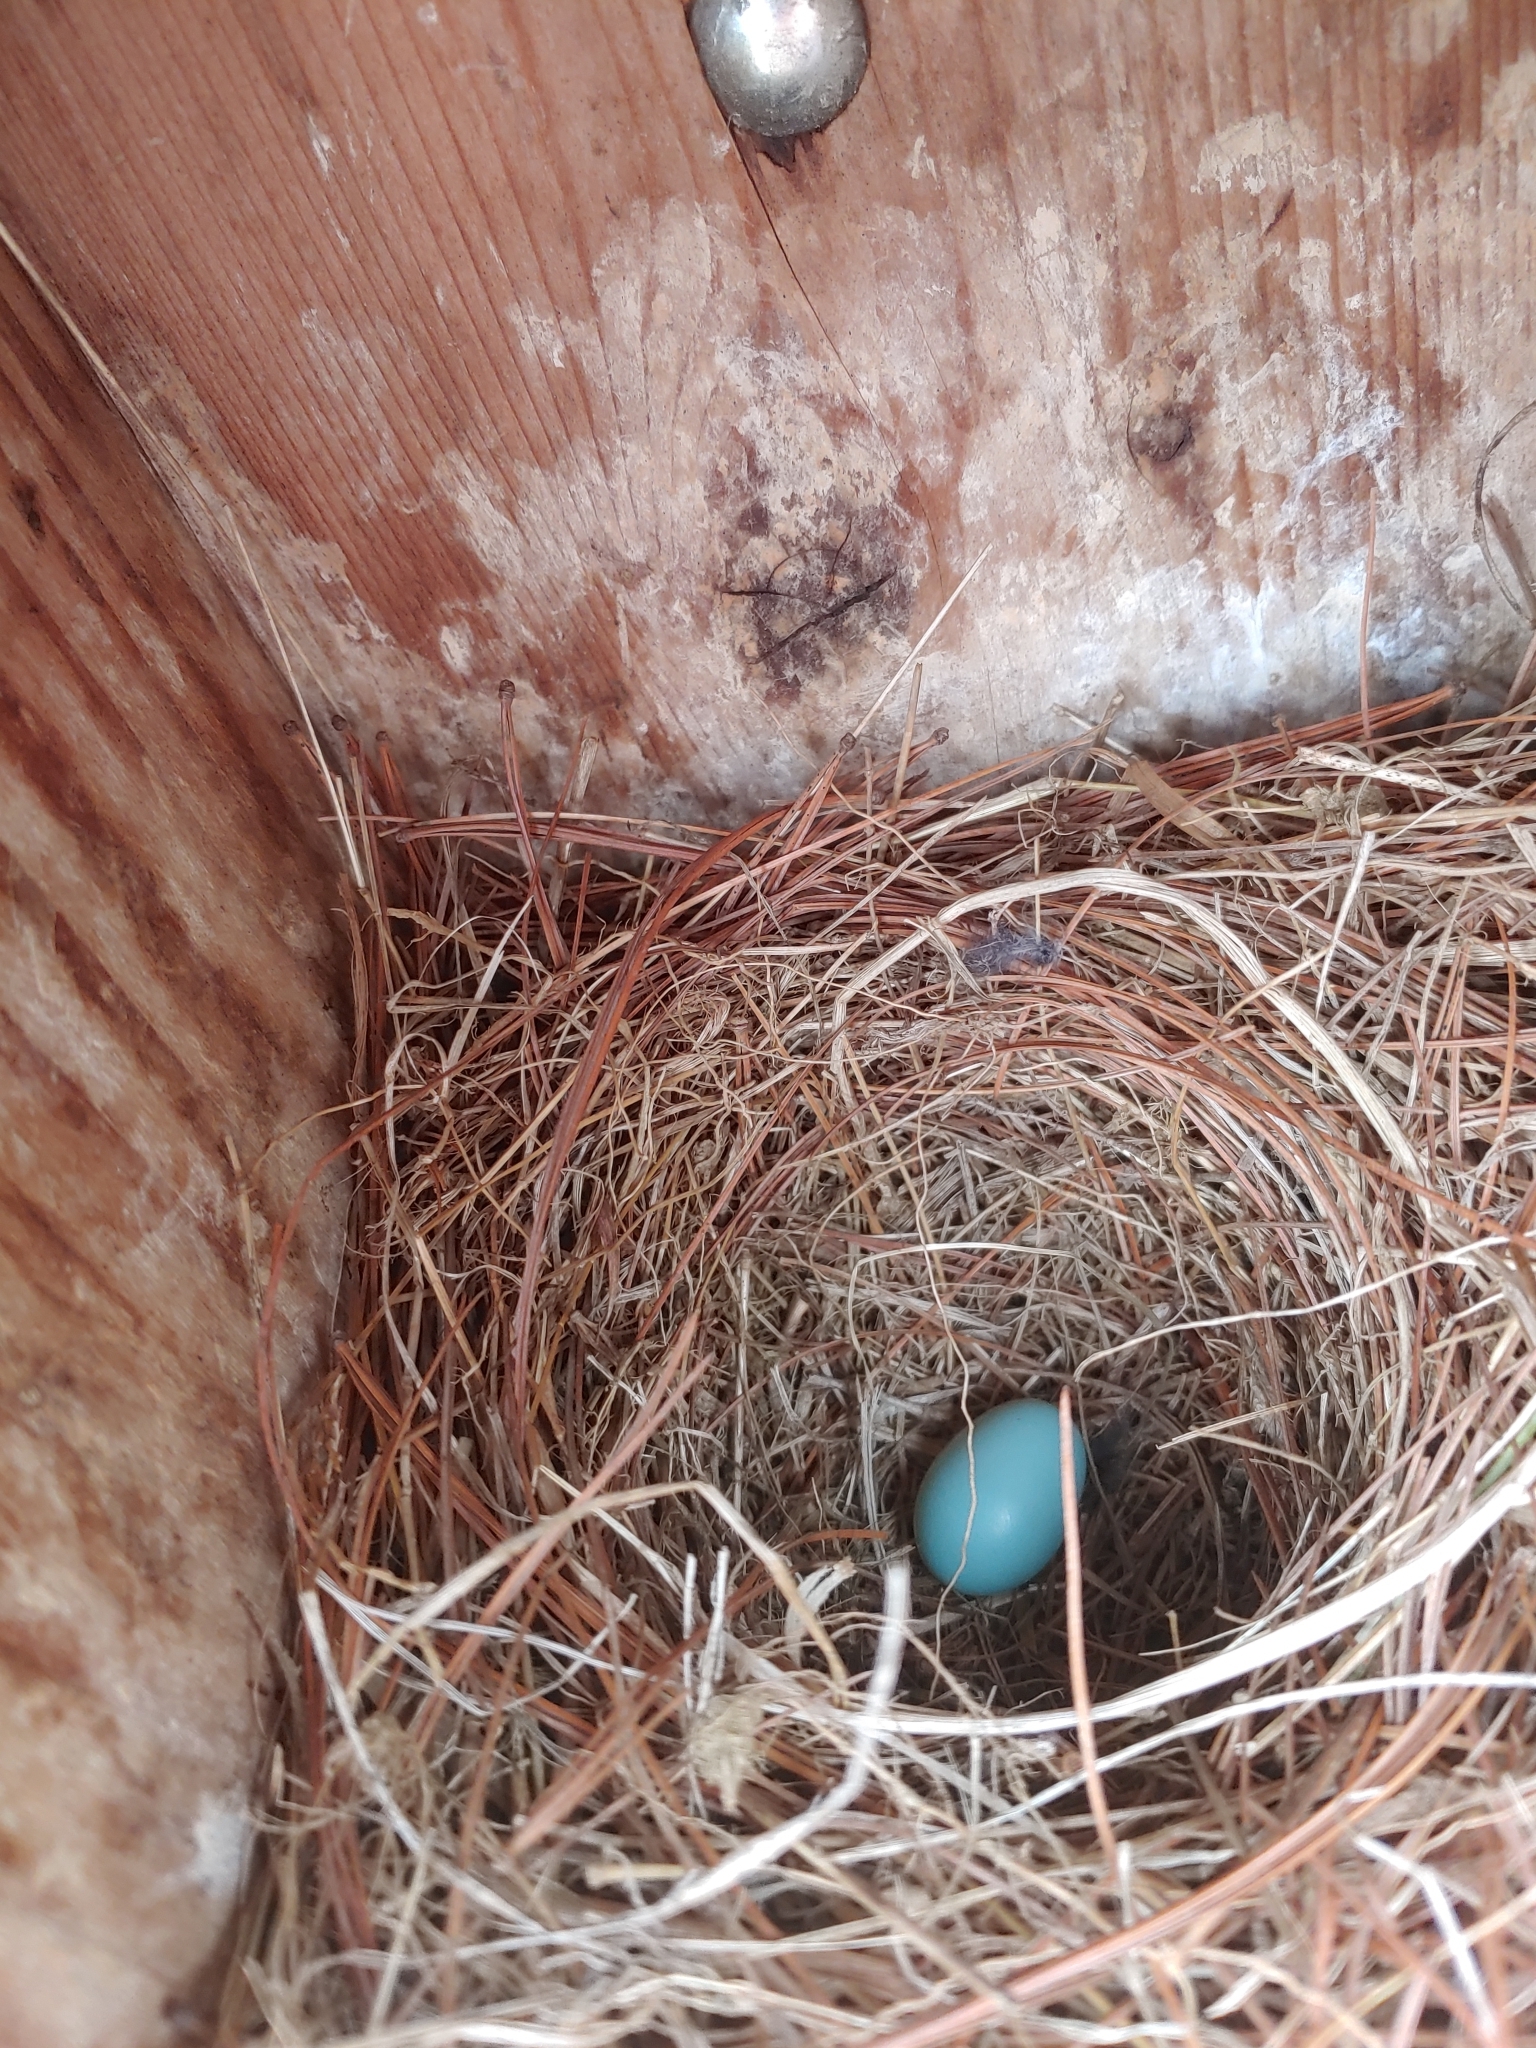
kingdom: Animalia
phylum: Chordata
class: Aves
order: Passeriformes
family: Turdidae
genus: Sialia
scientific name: Sialia sialis
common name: Eastern bluebird
